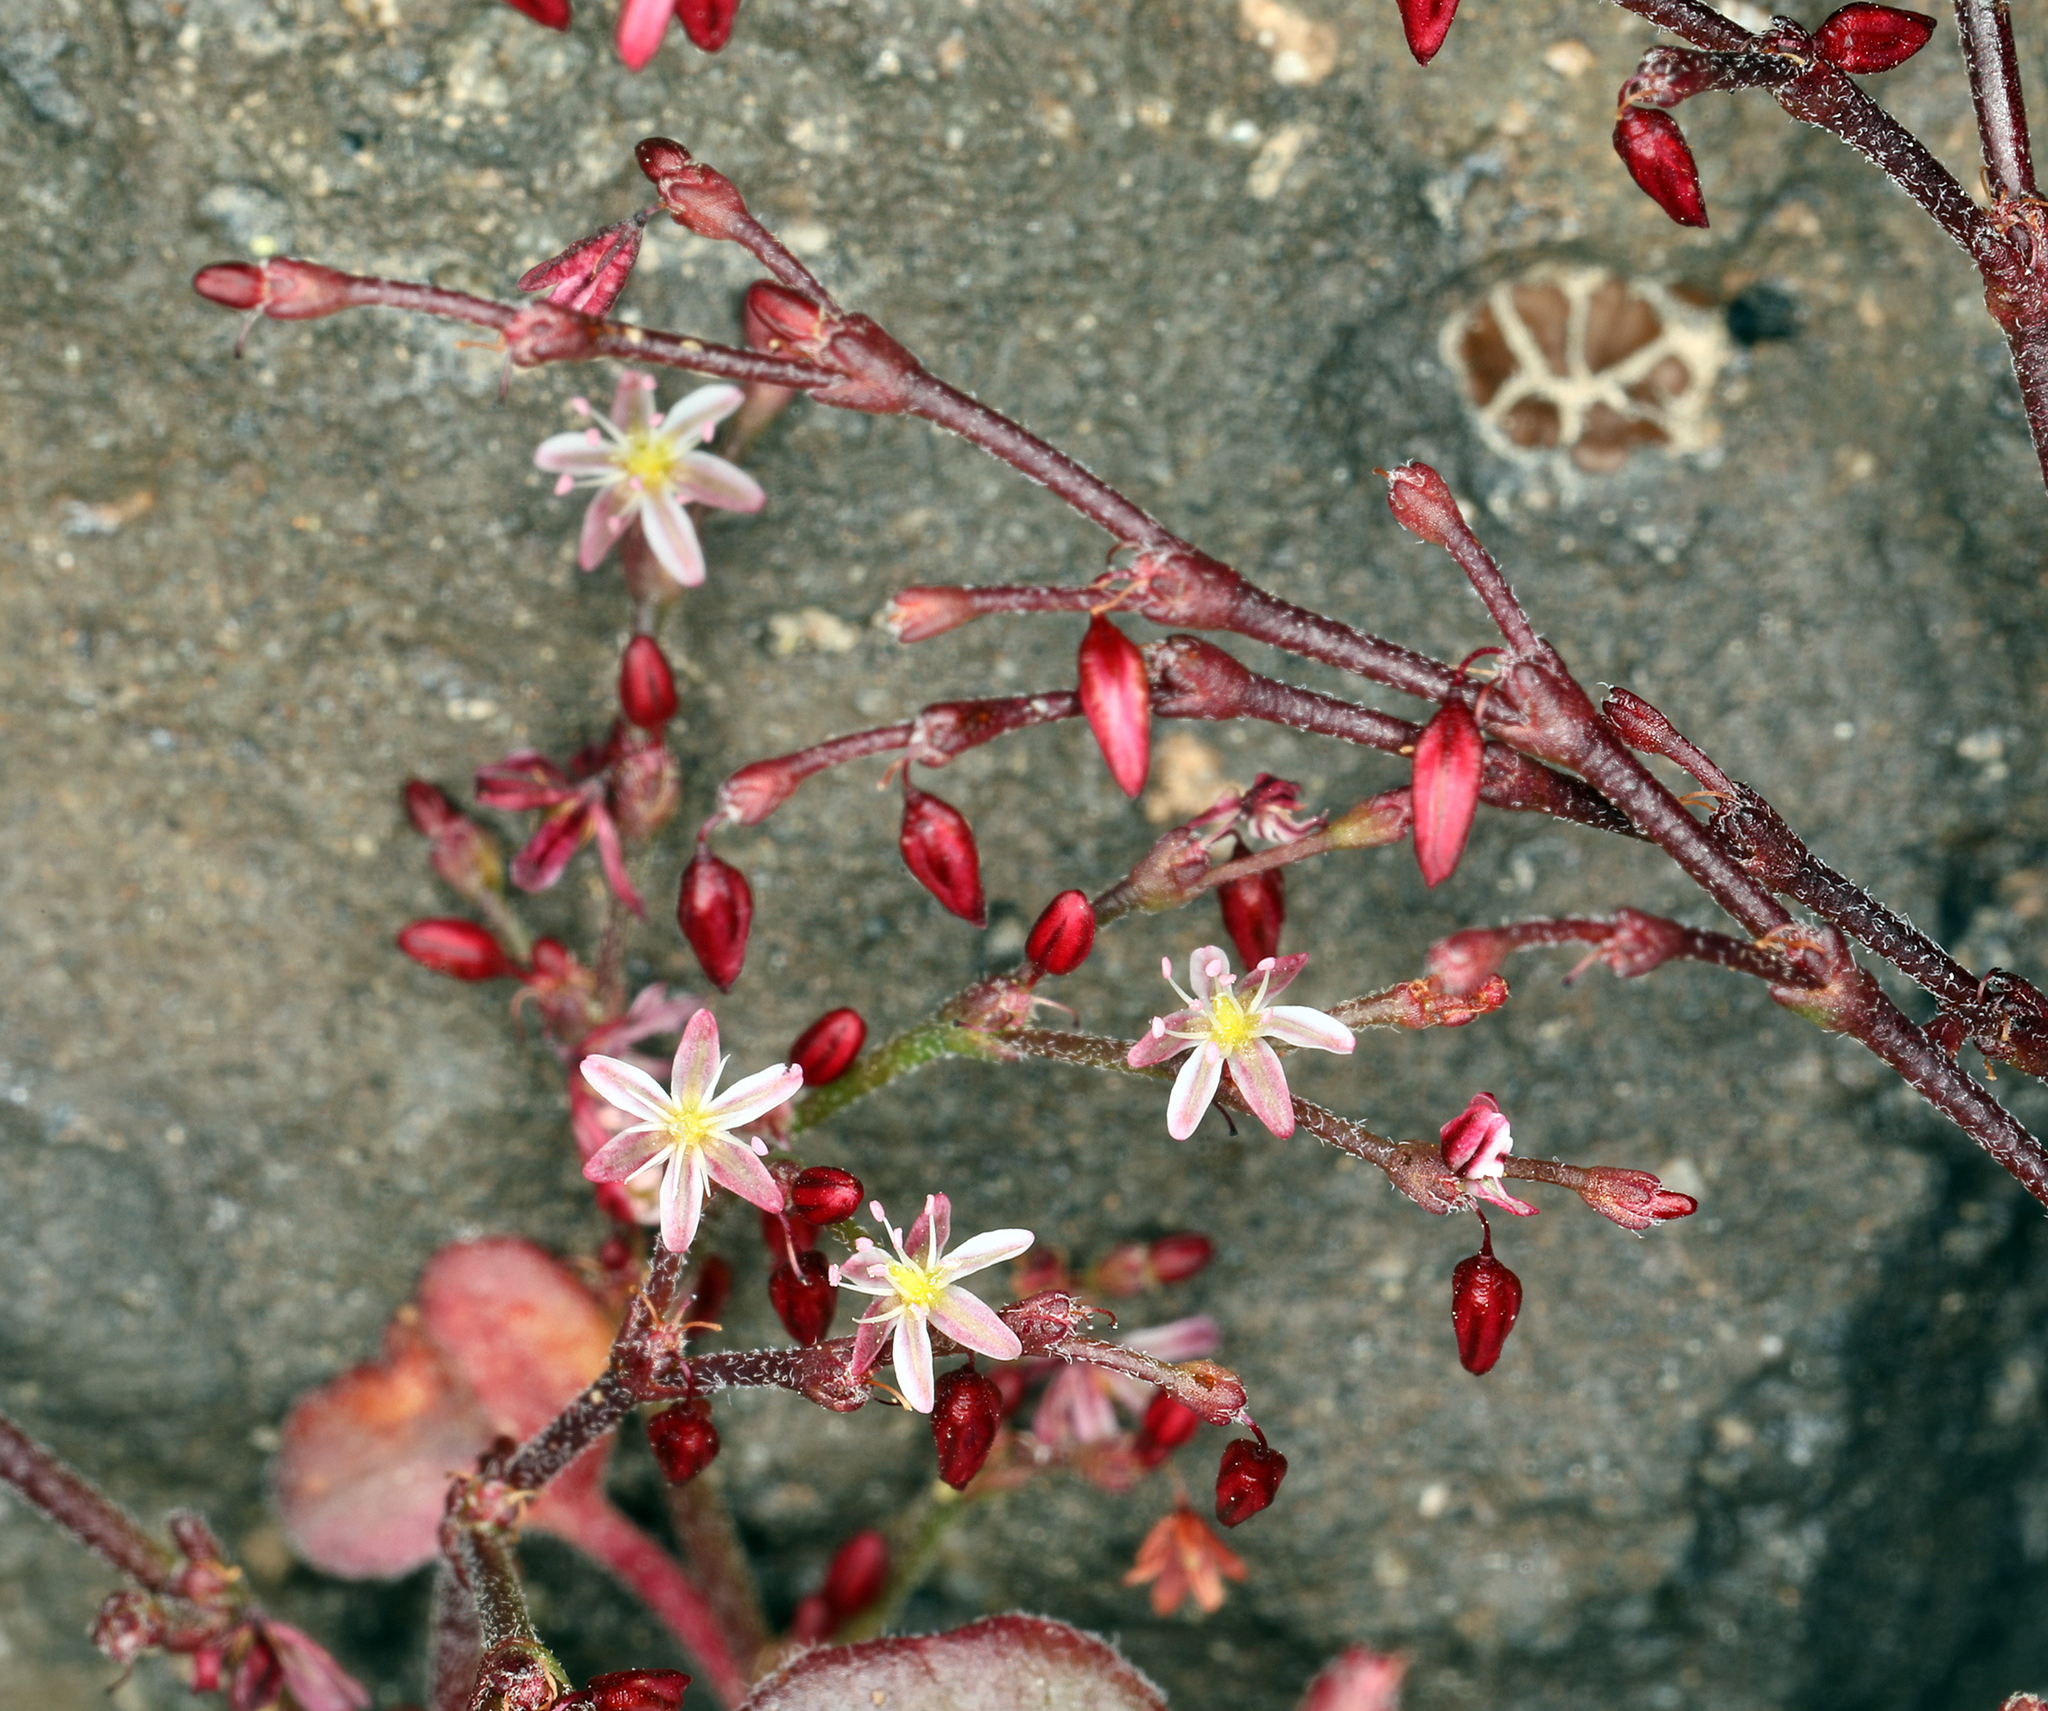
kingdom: Plantae
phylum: Tracheophyta
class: Magnoliopsida
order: Caryophyllales
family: Polygonaceae
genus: Johanneshowellia
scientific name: Johanneshowellia crateriorum
